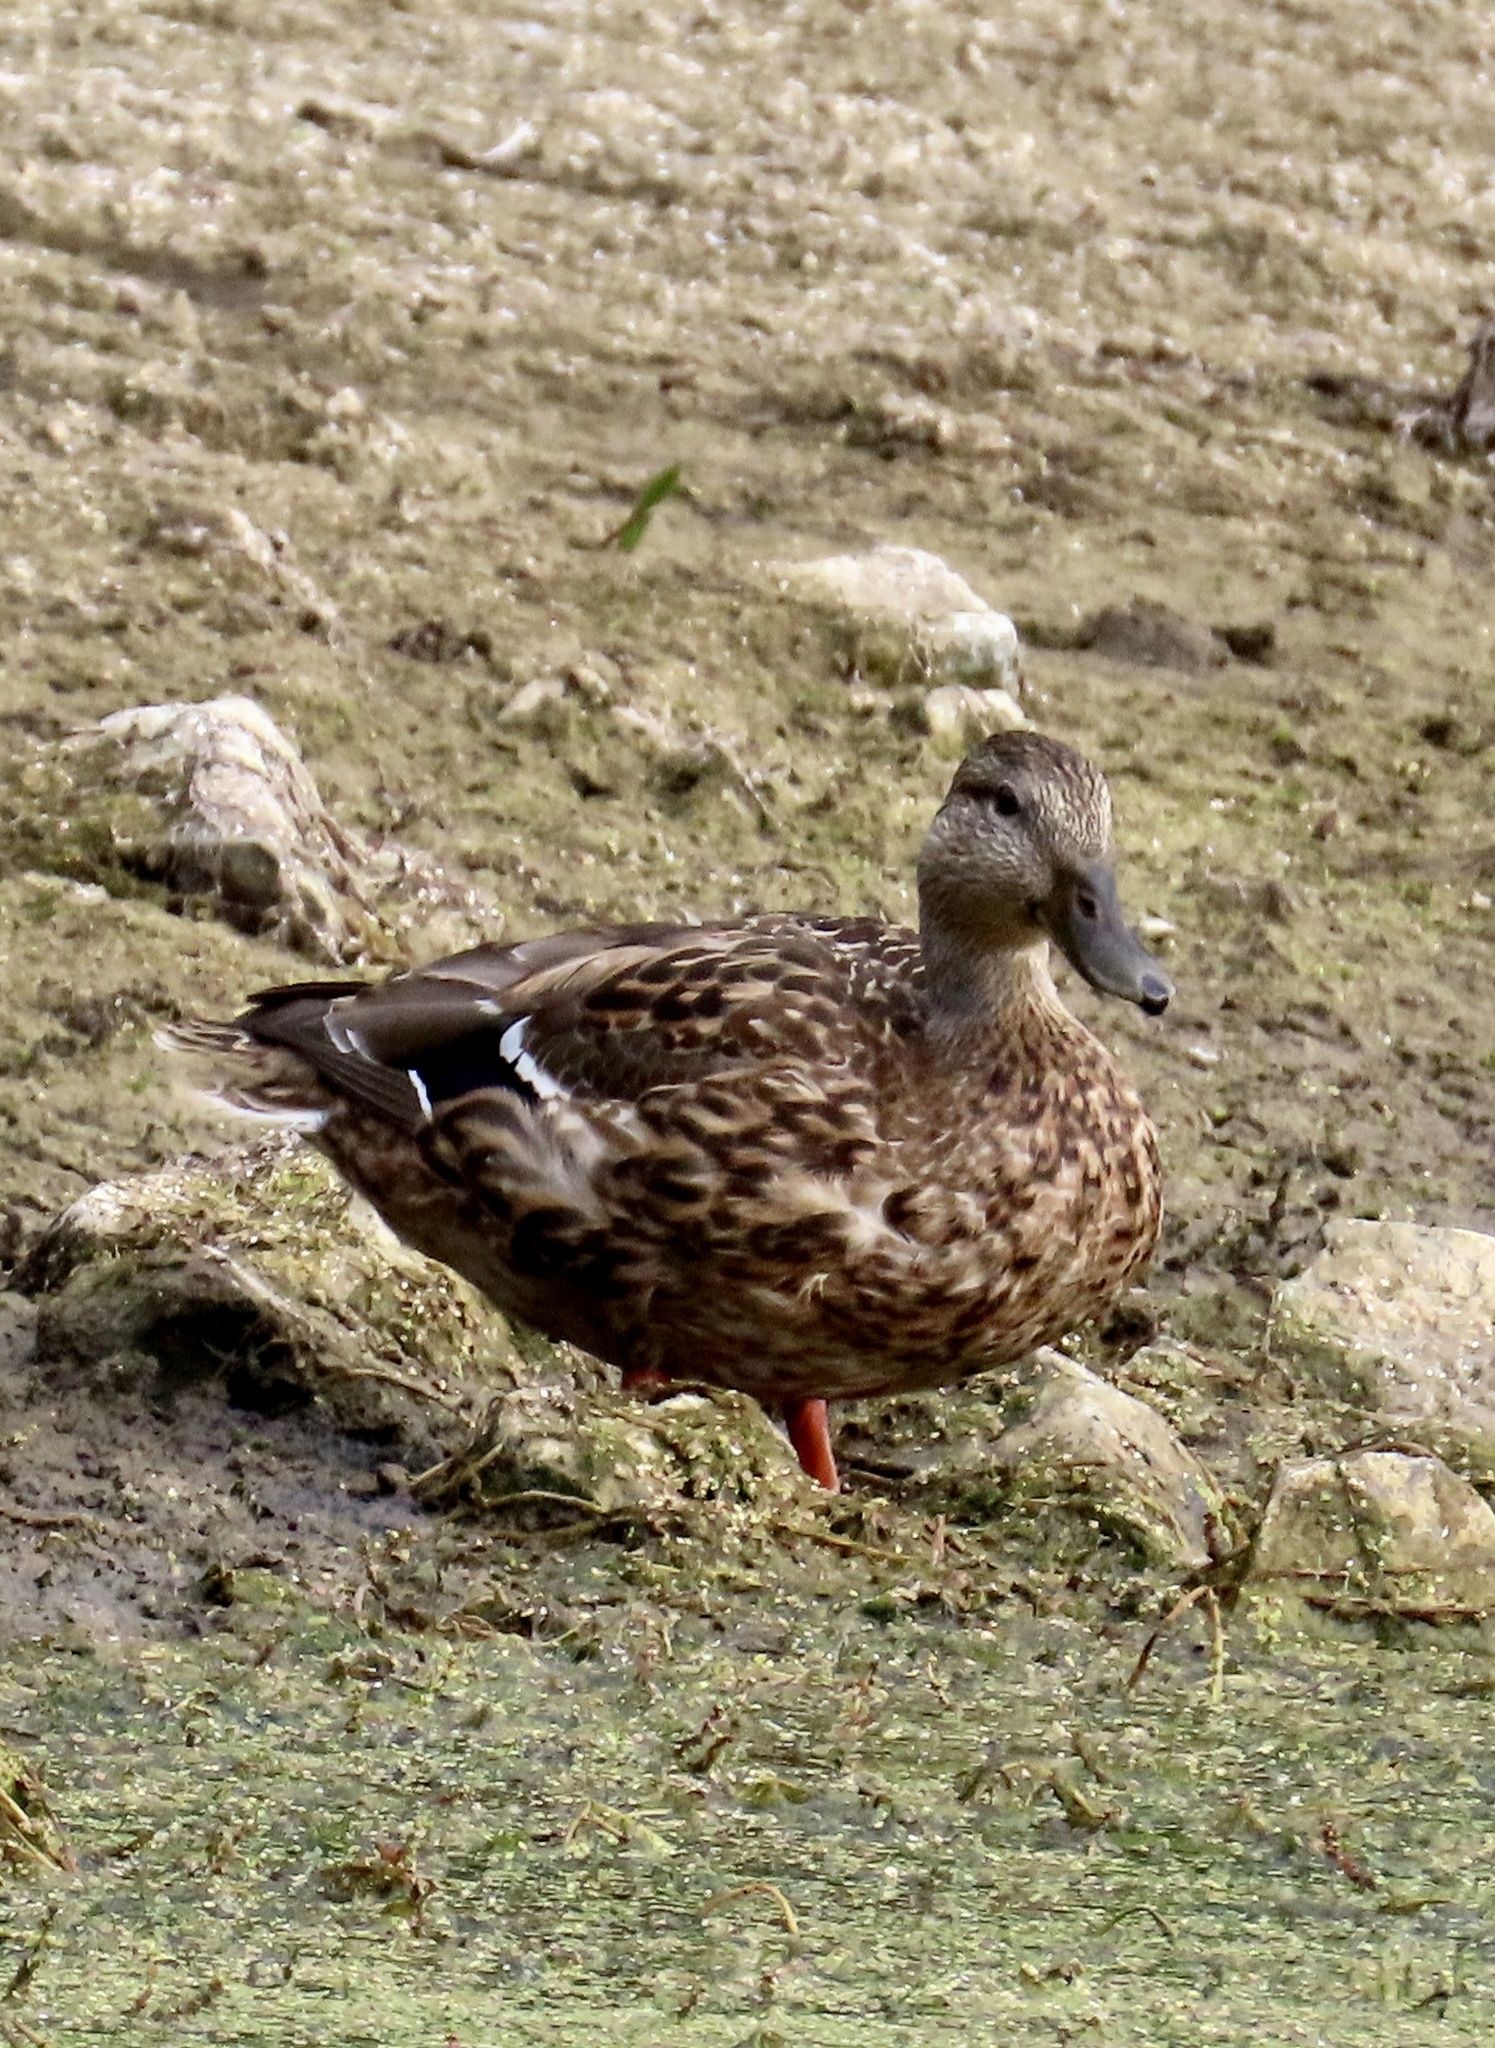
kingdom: Animalia
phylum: Chordata
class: Aves
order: Anseriformes
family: Anatidae
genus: Anas
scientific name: Anas platyrhynchos
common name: Mallard
